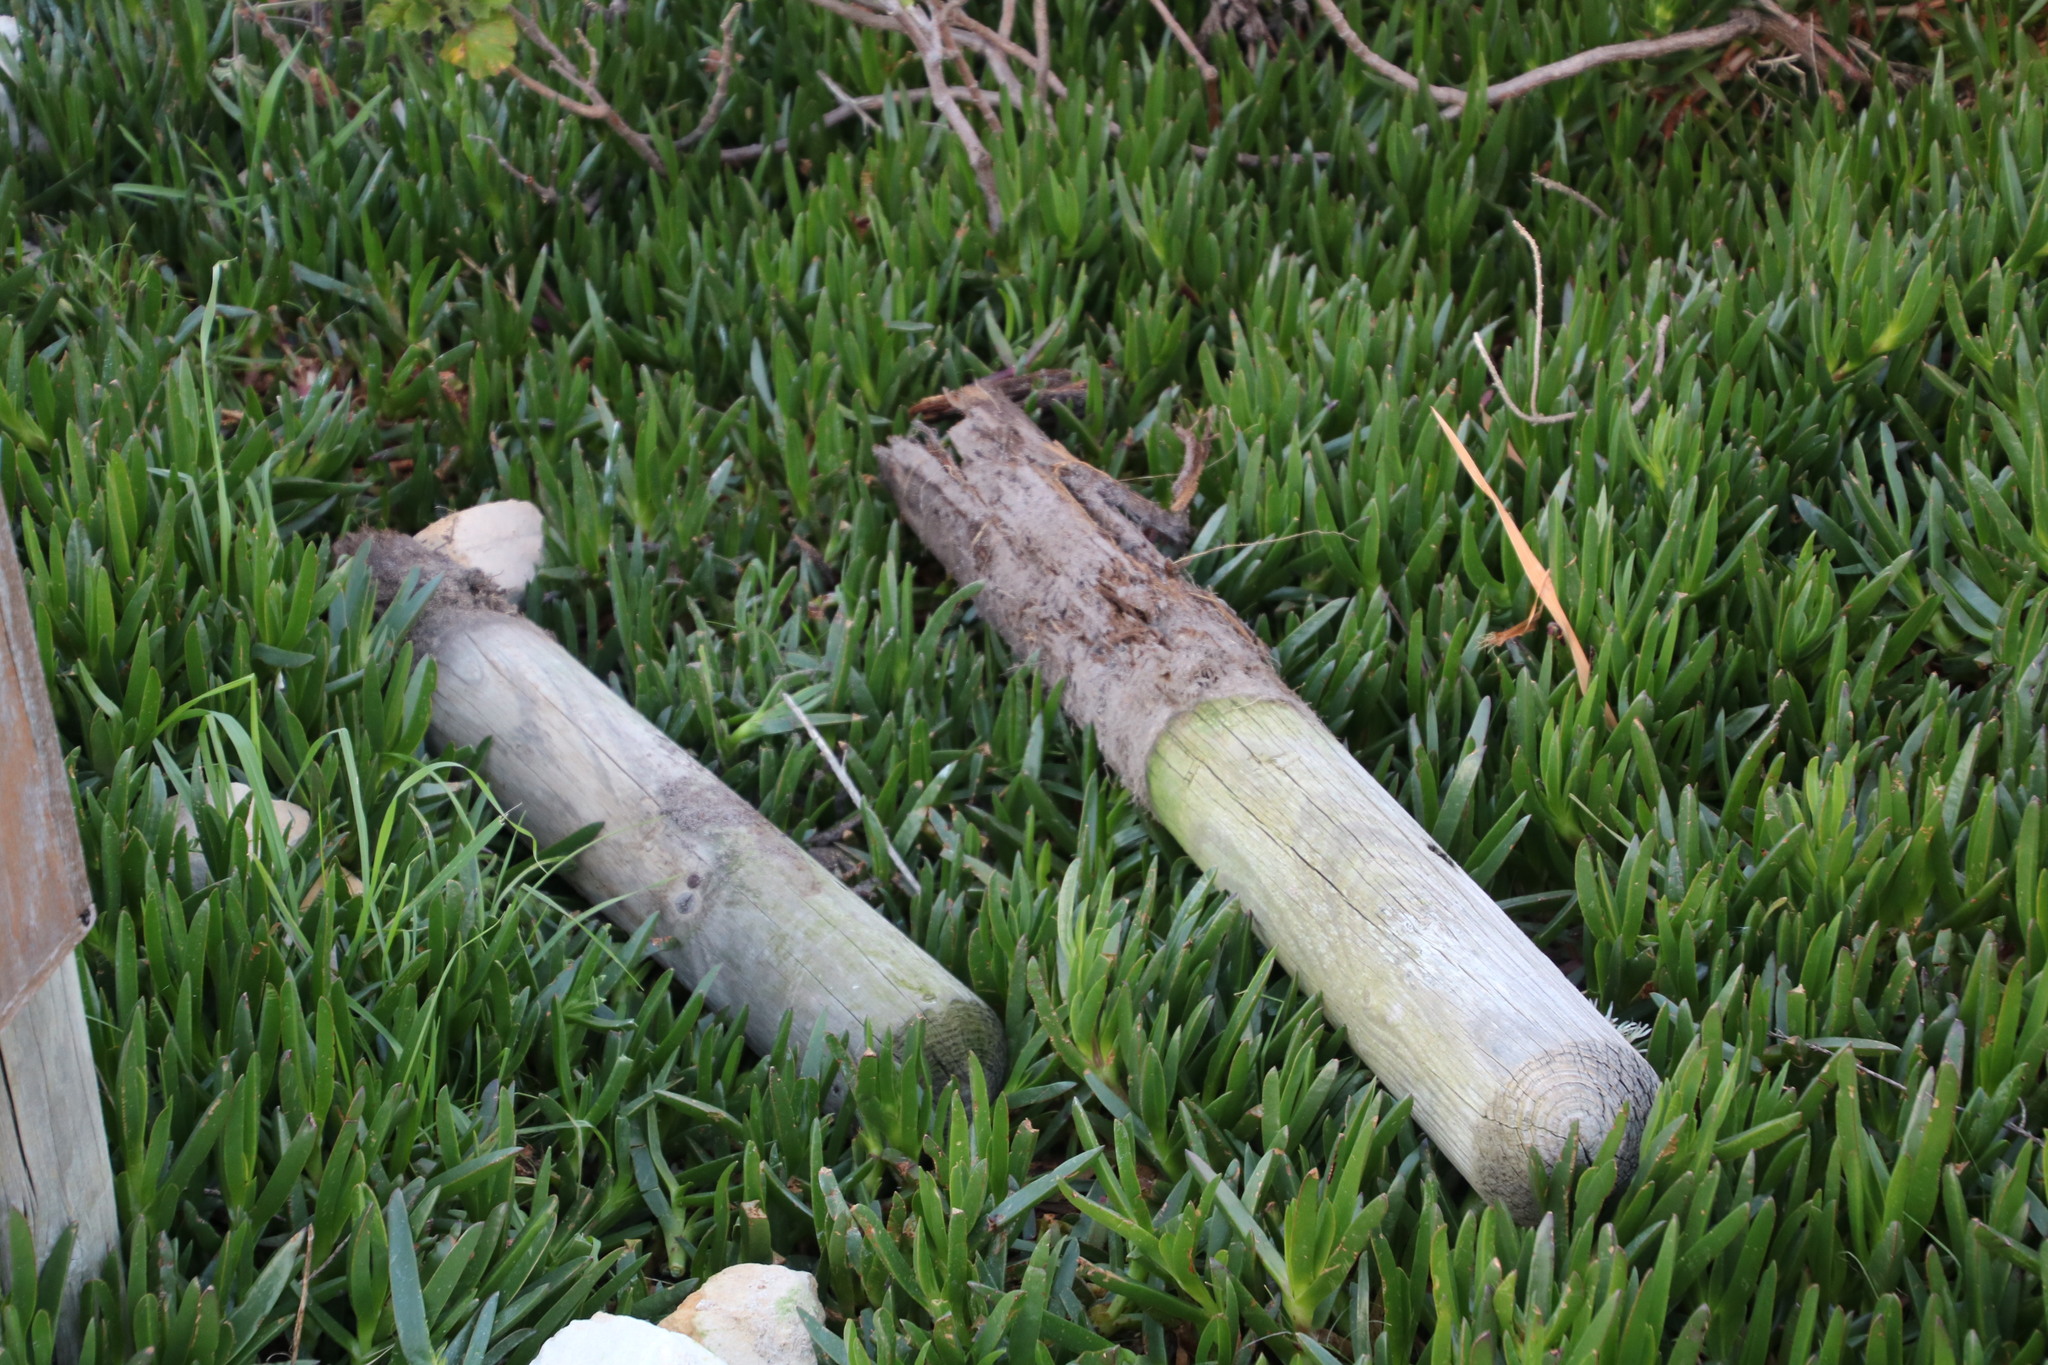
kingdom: Plantae
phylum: Tracheophyta
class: Magnoliopsida
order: Caryophyllales
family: Aizoaceae
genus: Carpobrotus
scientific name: Carpobrotus edulis
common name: Hottentot-fig
